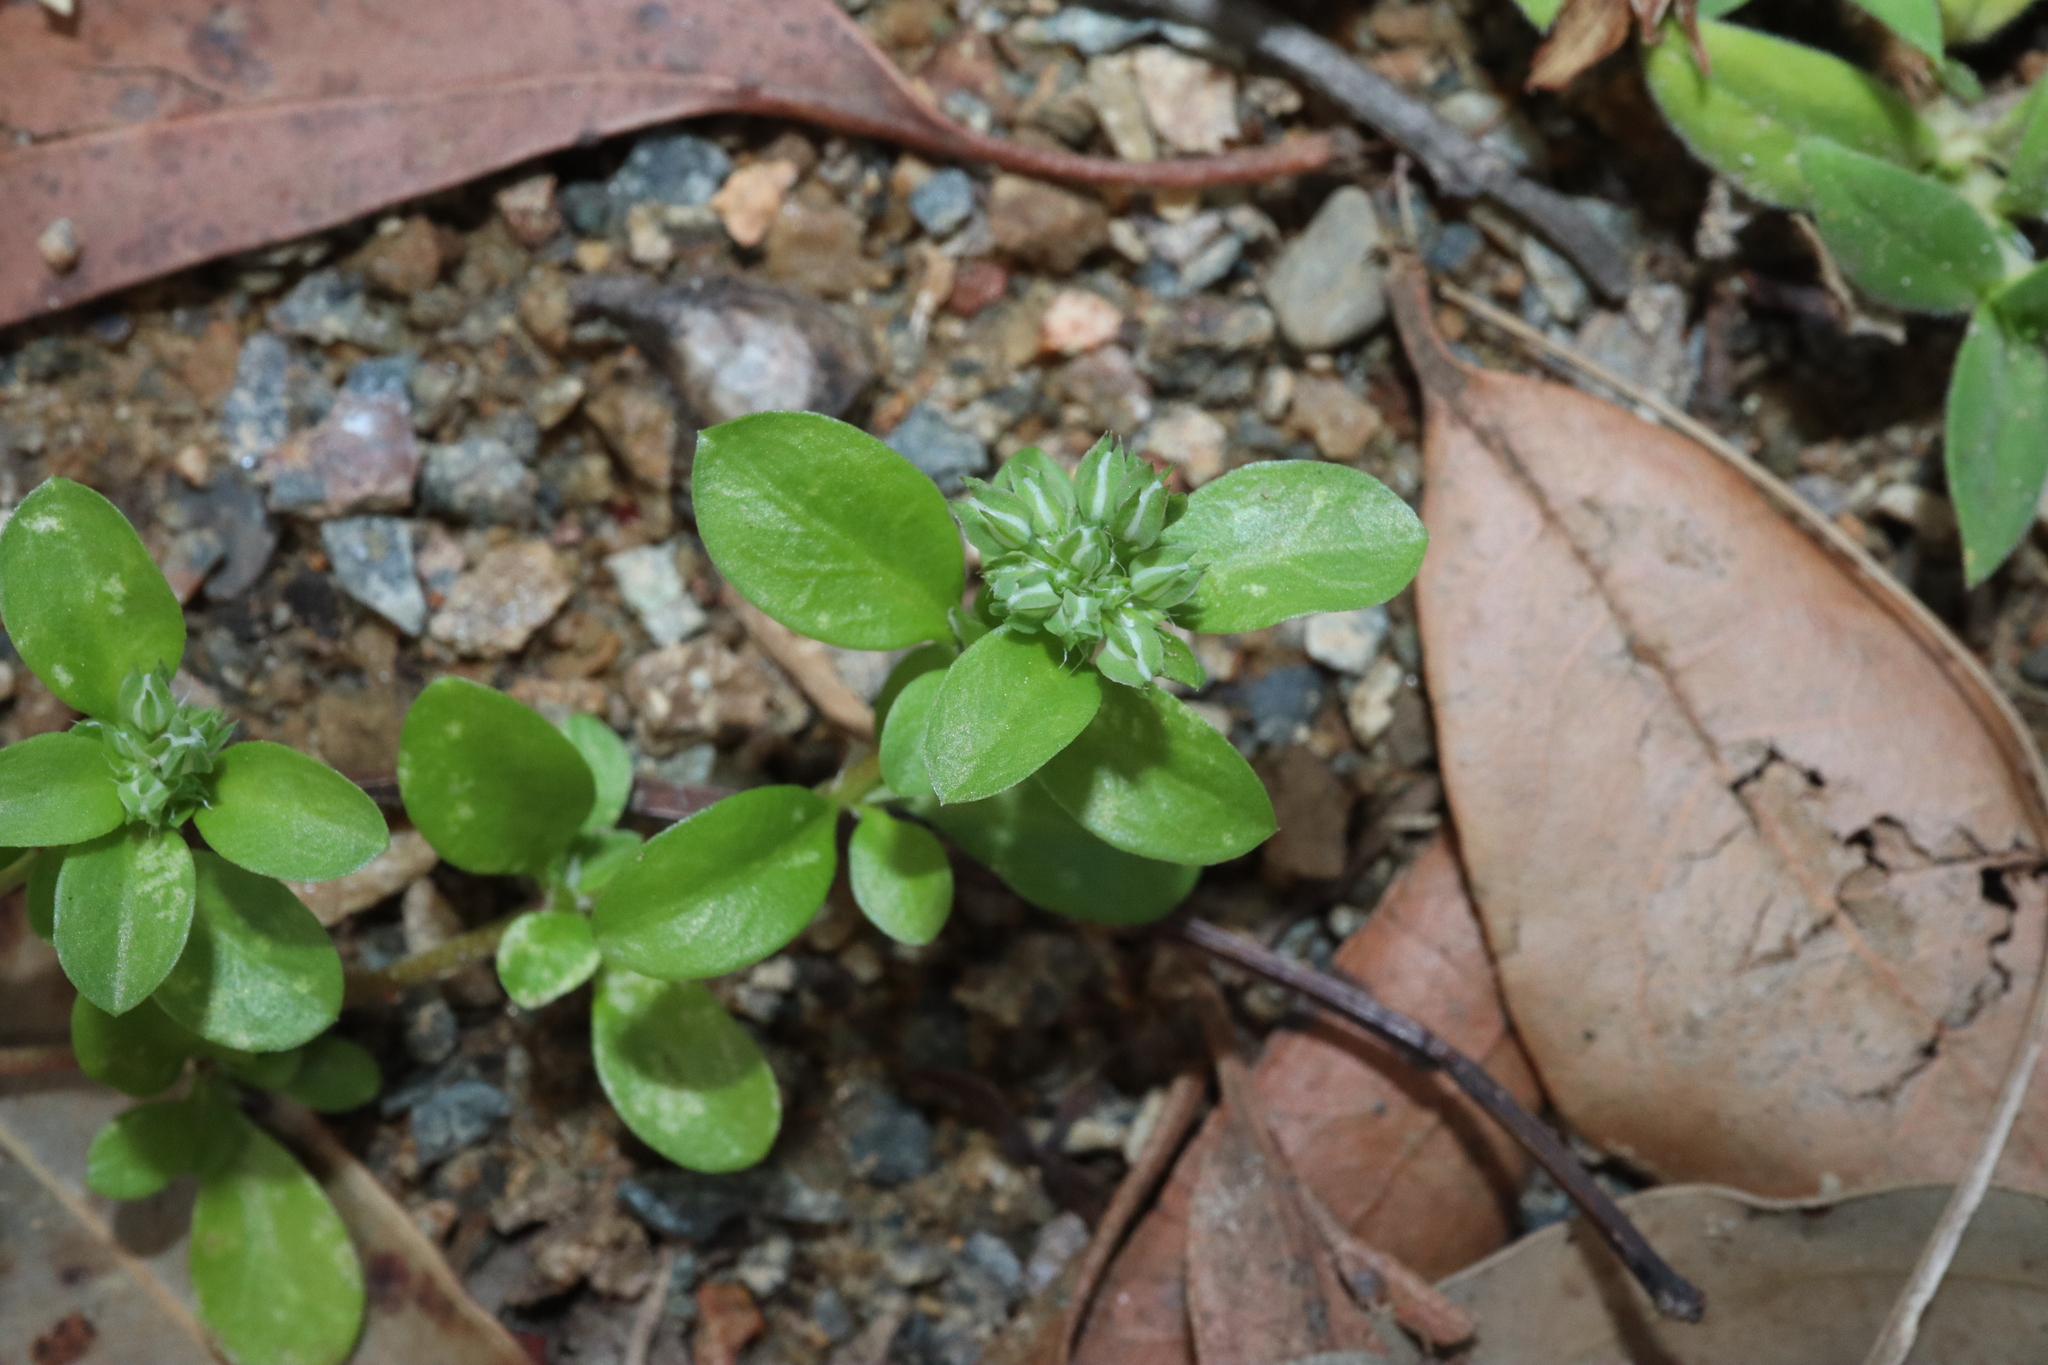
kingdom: Plantae
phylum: Tracheophyta
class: Magnoliopsida
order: Caryophyllales
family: Caryophyllaceae
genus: Polycarpon
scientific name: Polycarpon tetraphyllum
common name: Four-leaved all-seed
